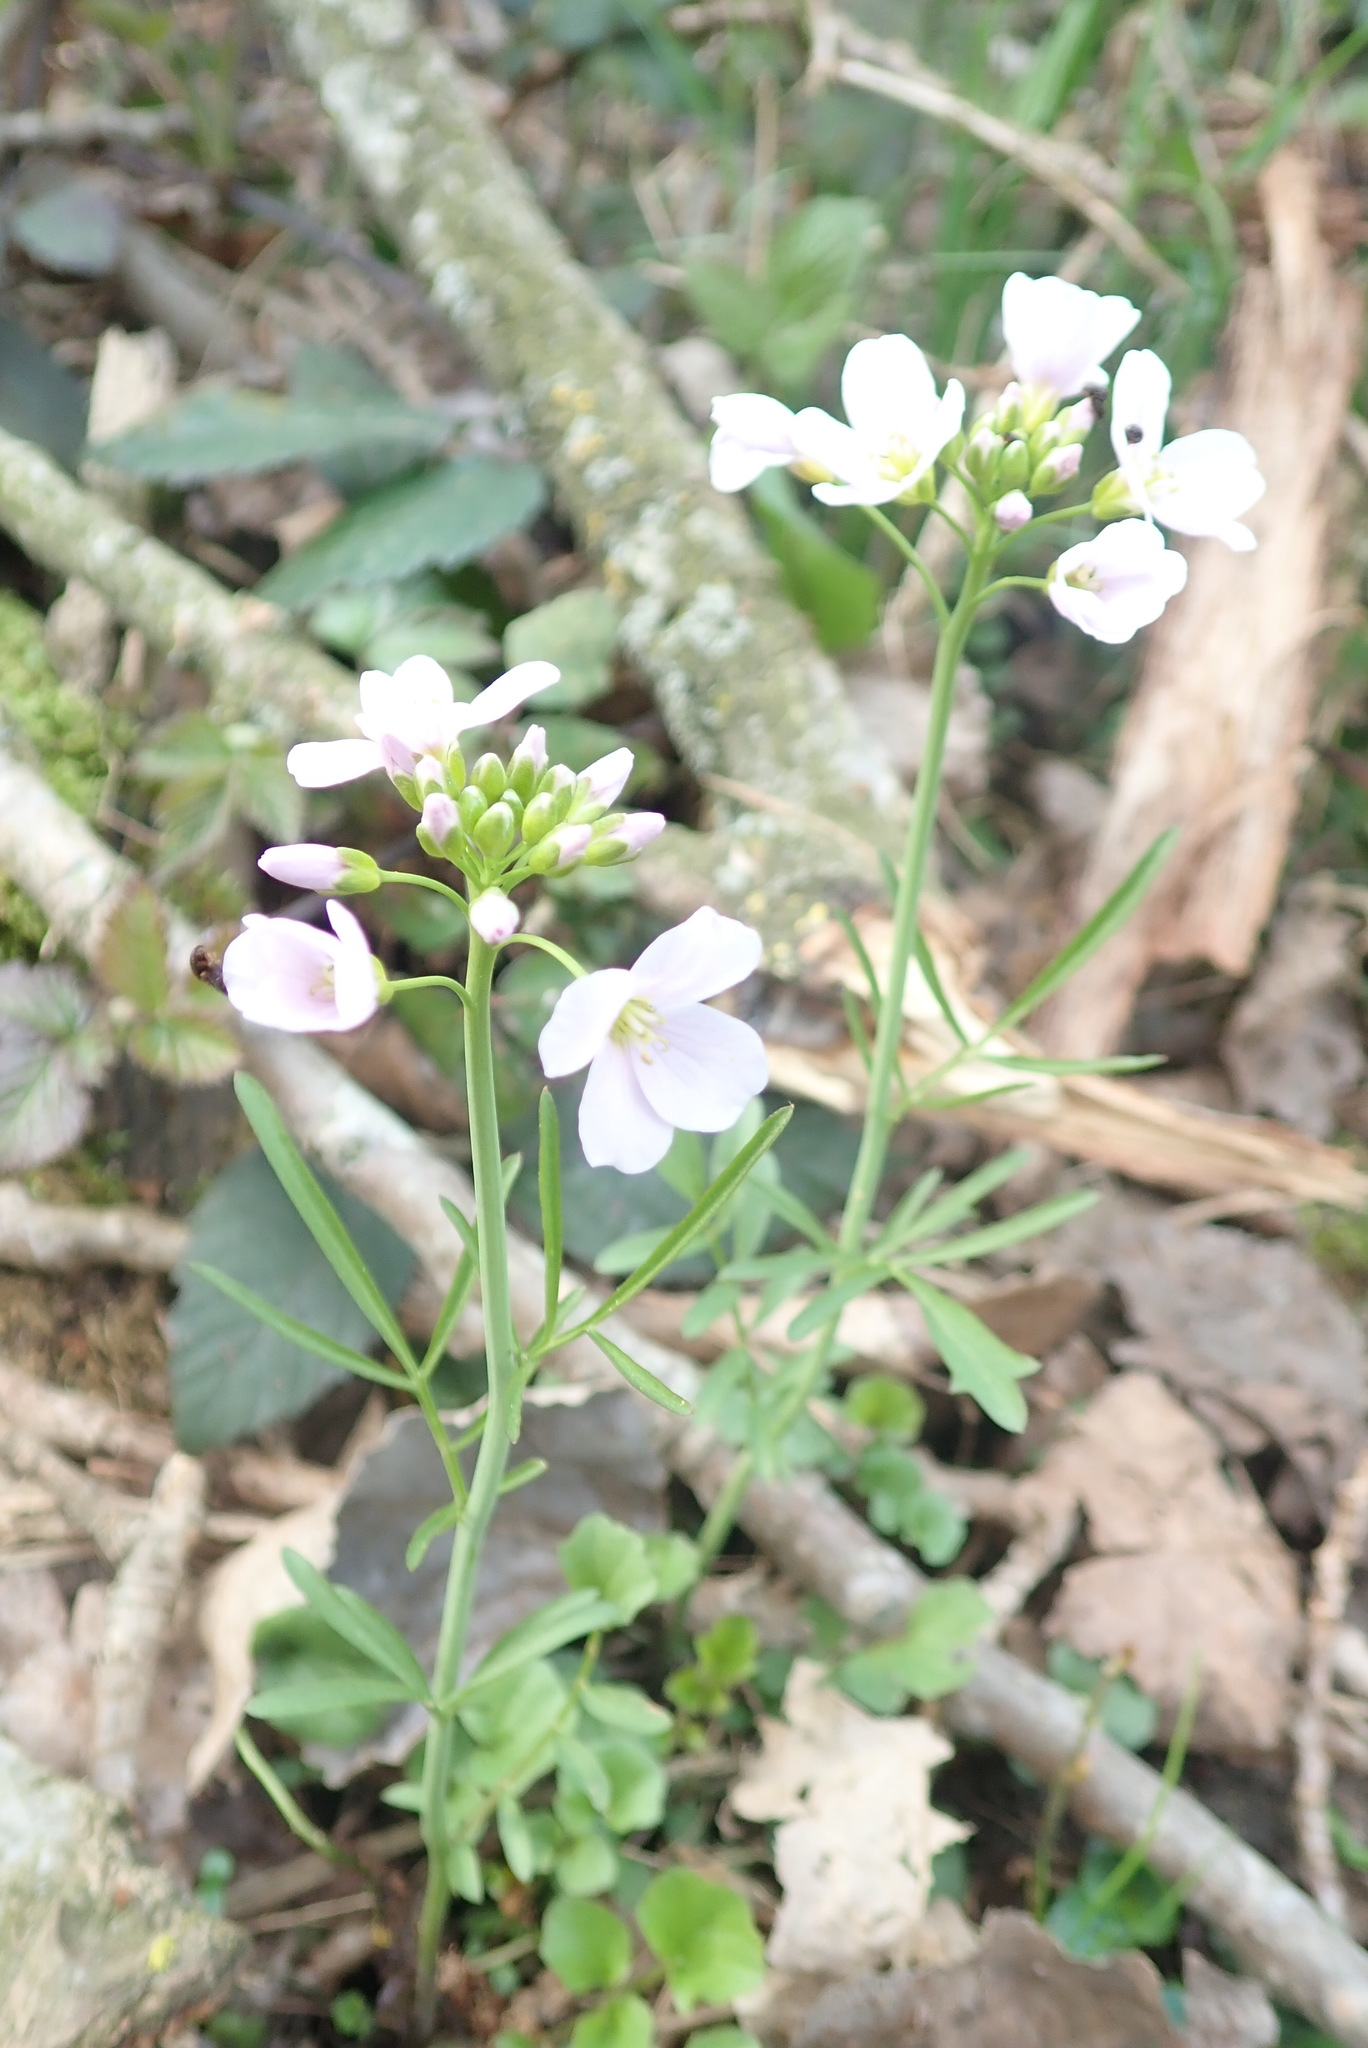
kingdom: Plantae
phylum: Tracheophyta
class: Magnoliopsida
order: Brassicales
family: Brassicaceae
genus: Cardamine
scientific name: Cardamine pratensis
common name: Cuckoo flower
